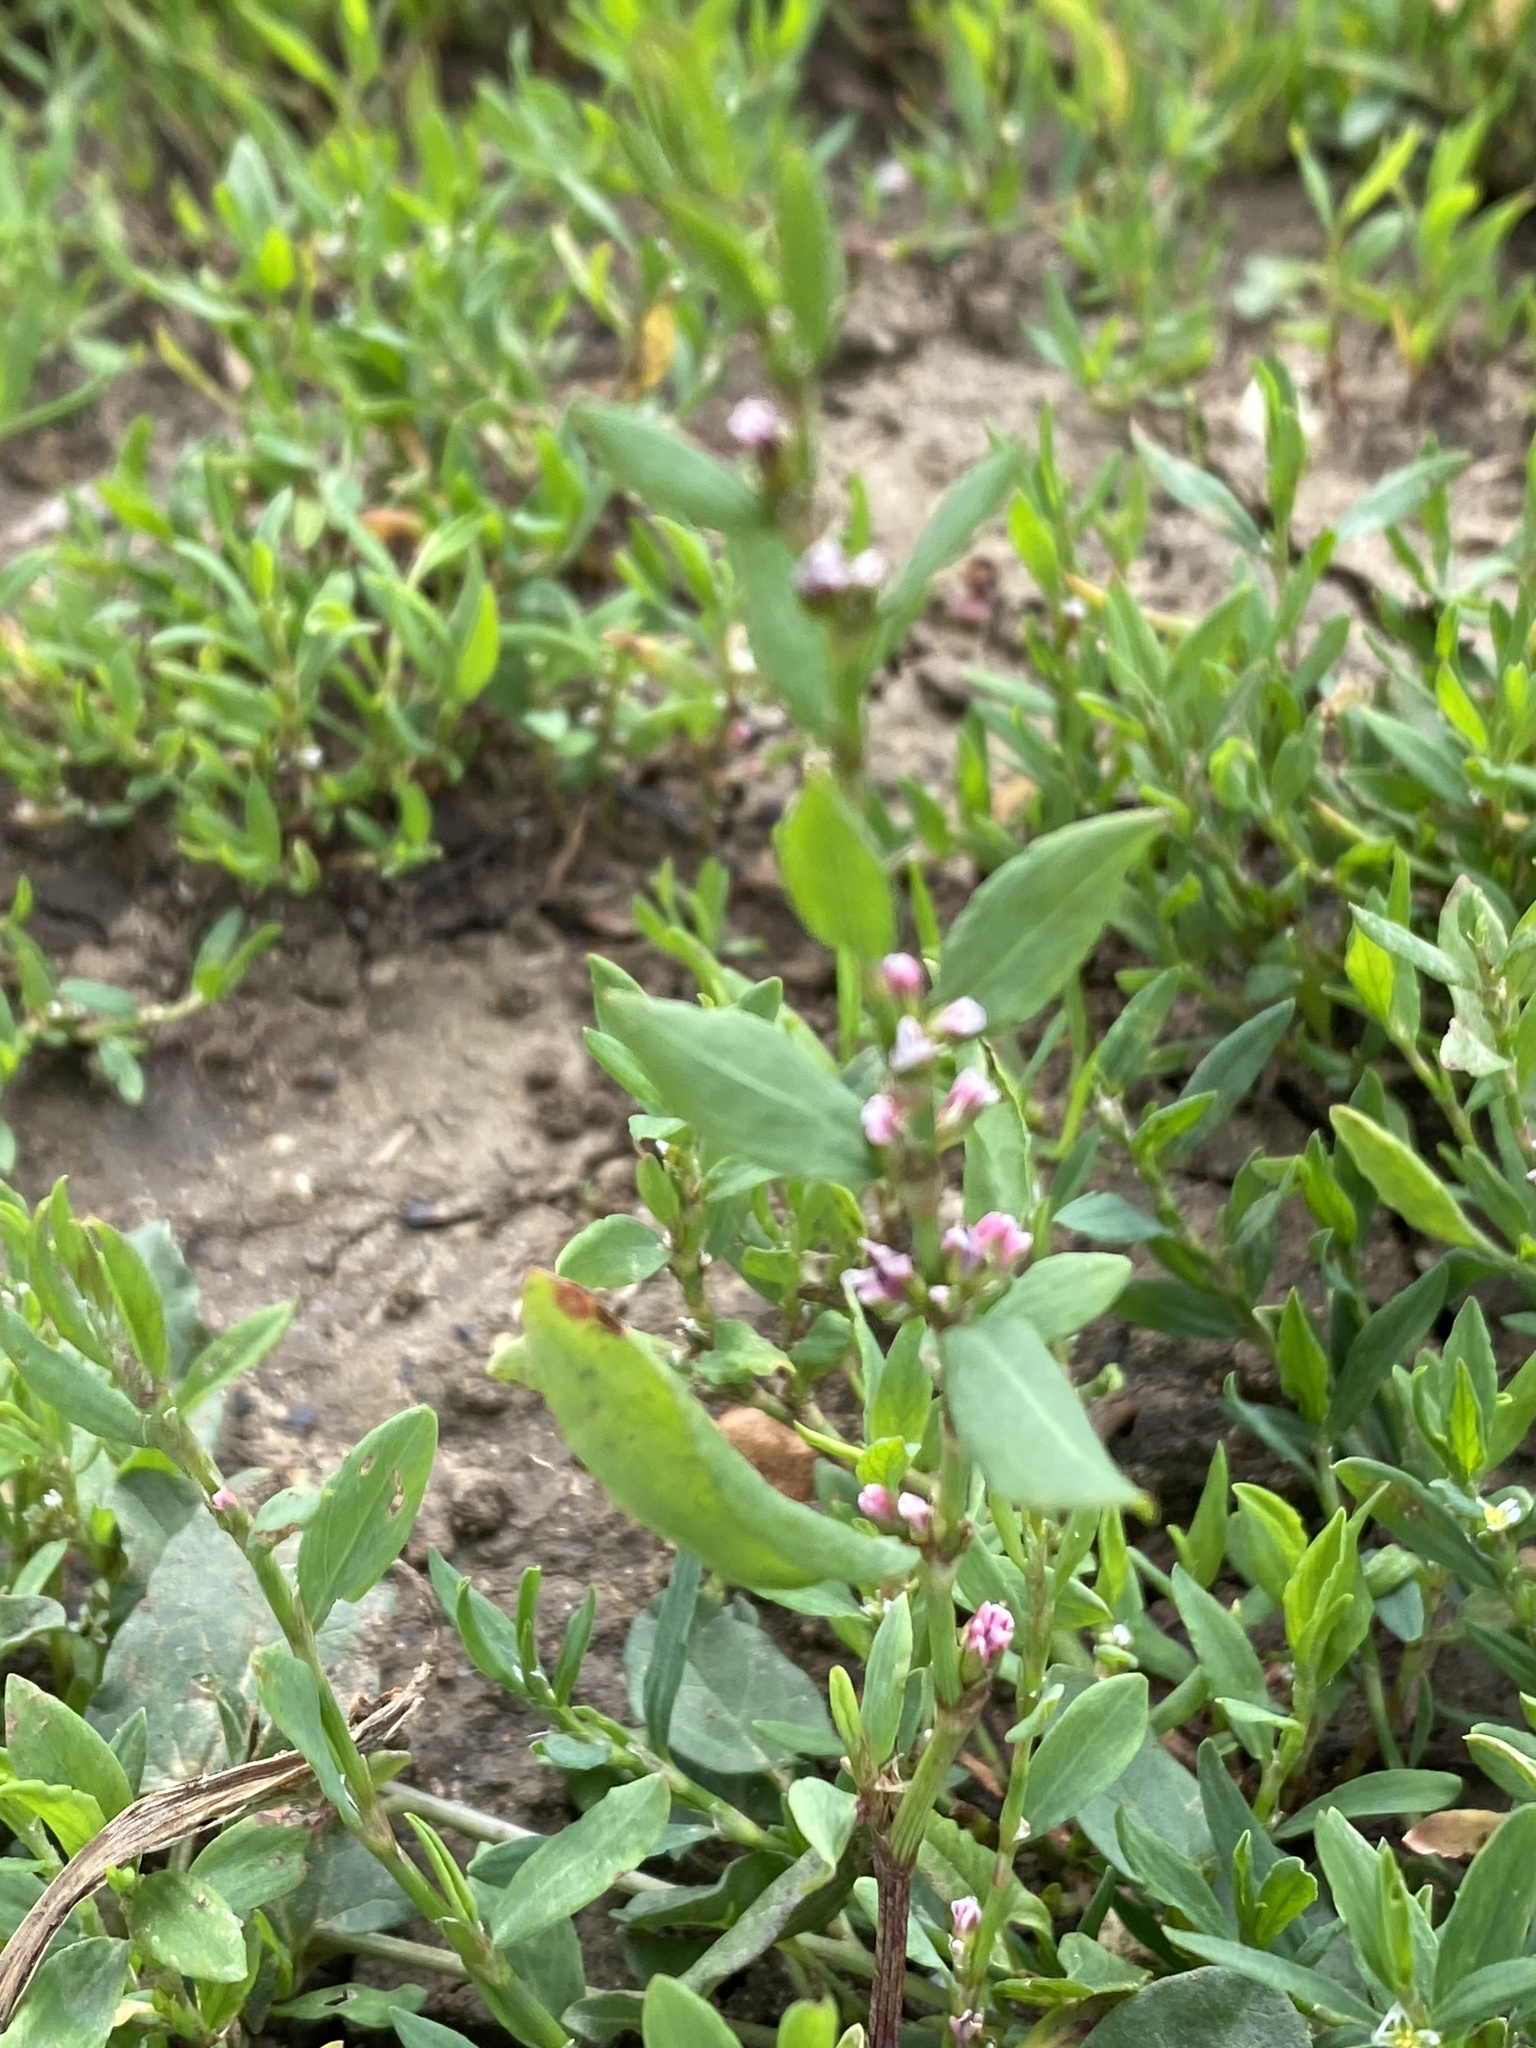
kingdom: Plantae
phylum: Tracheophyta
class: Magnoliopsida
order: Caryophyllales
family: Polygonaceae
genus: Polygonum
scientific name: Polygonum aviculare
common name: Prostrate knotweed
